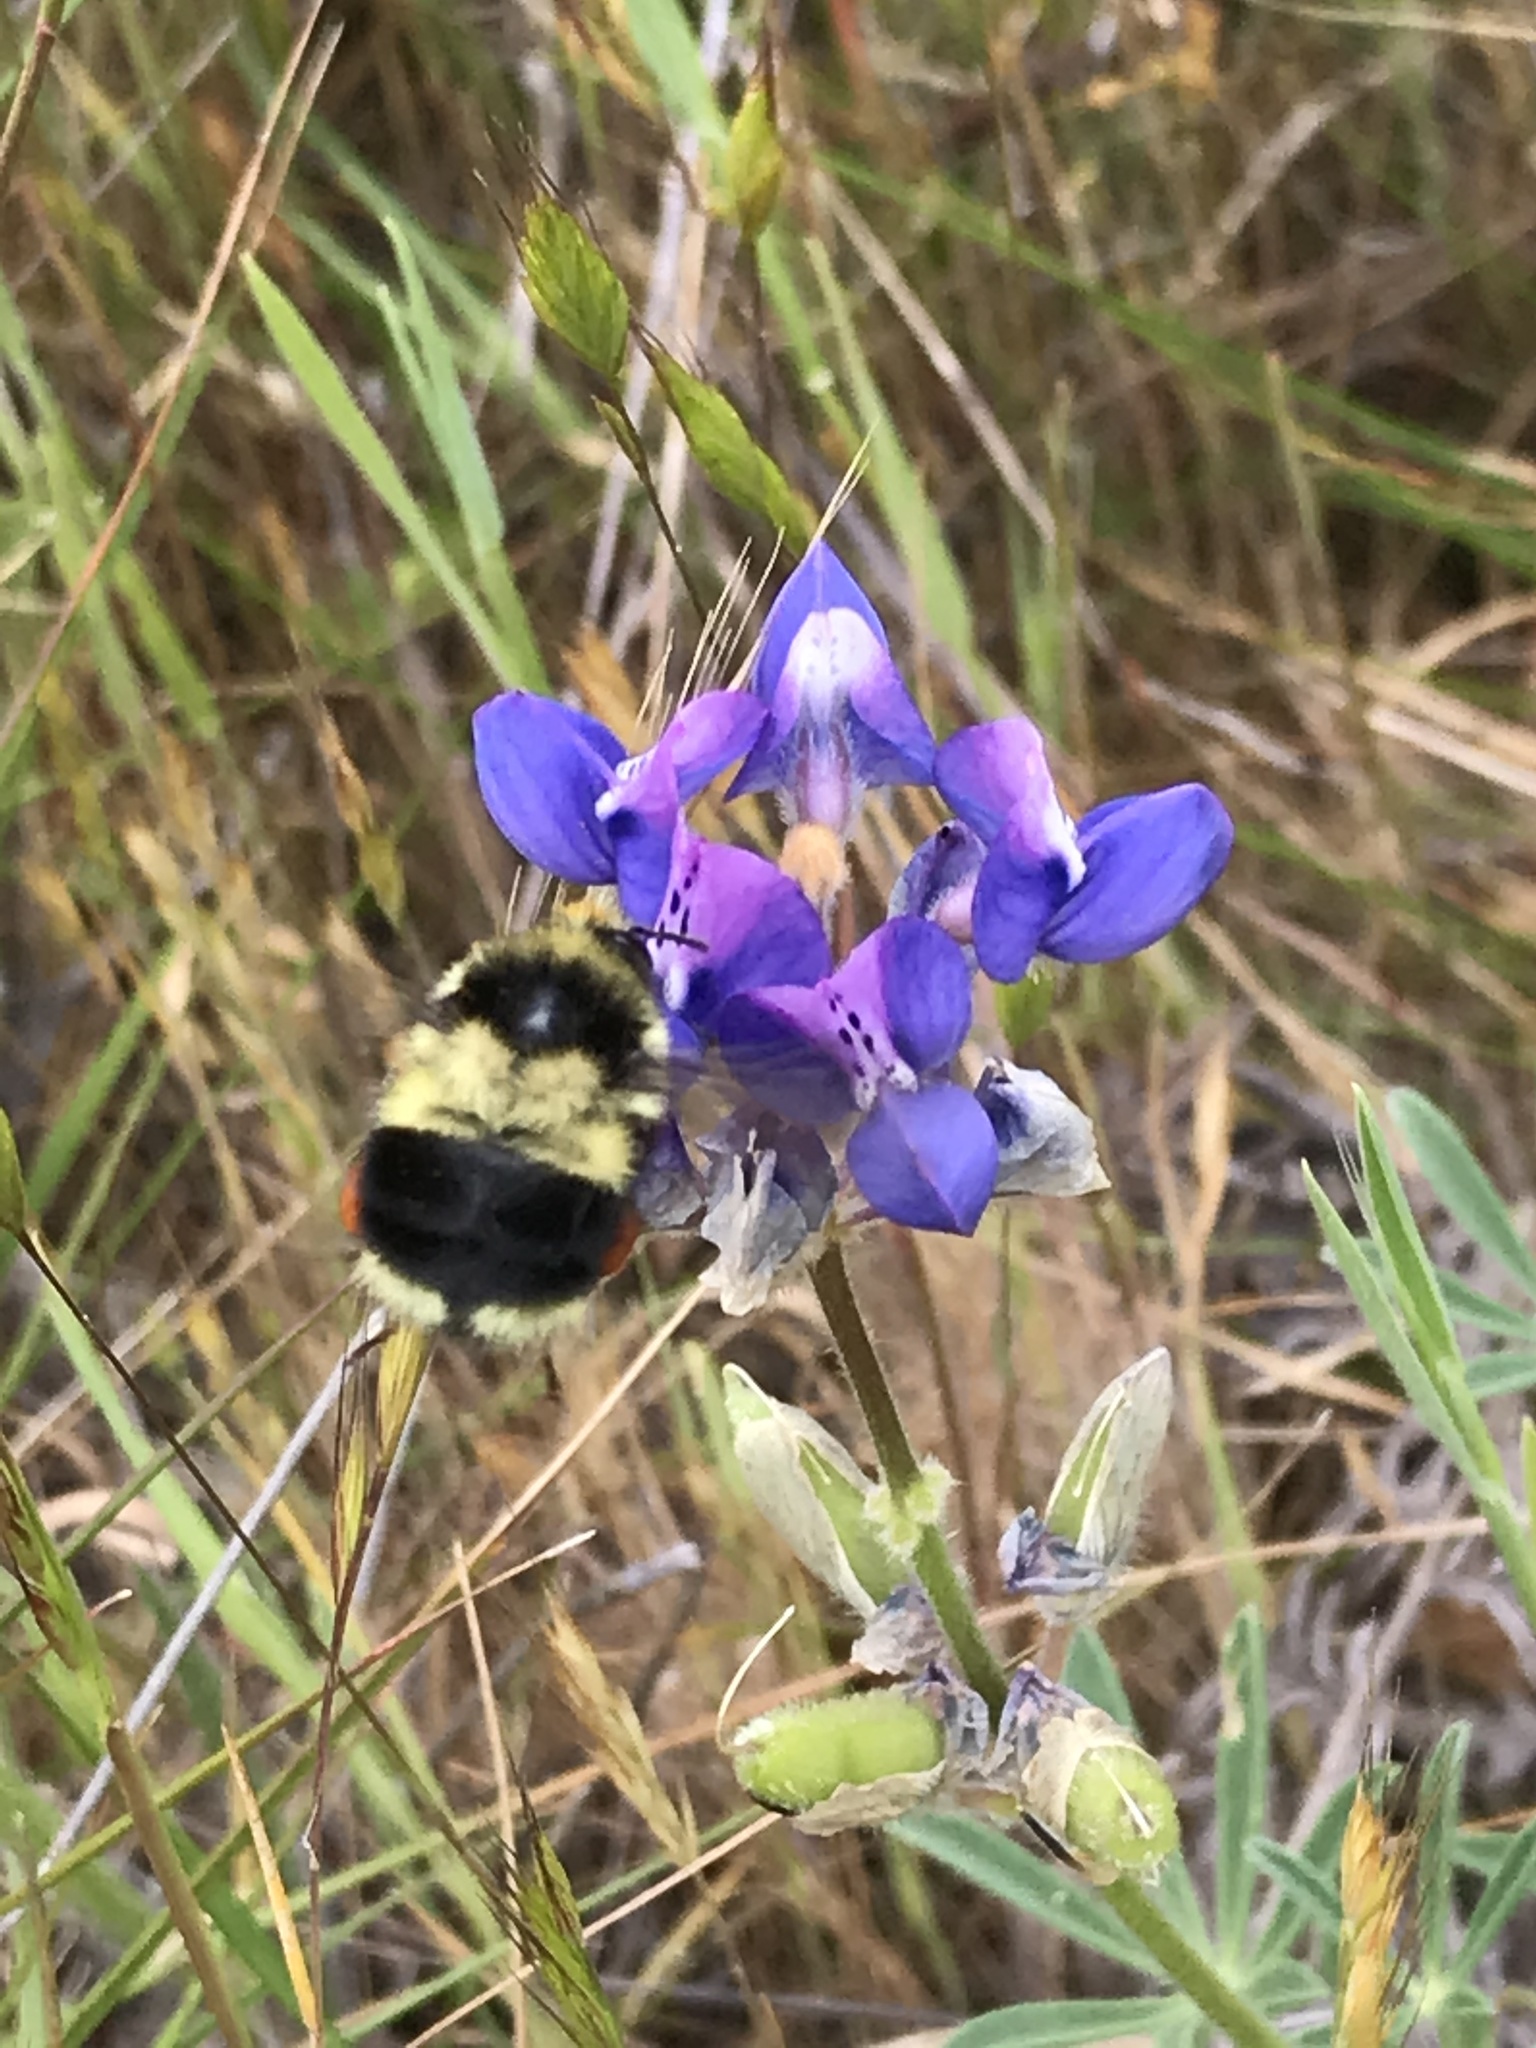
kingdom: Animalia
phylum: Arthropoda
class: Insecta
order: Hymenoptera
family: Apidae
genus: Bombus
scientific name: Bombus melanopygus
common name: Black tail bumble bee
